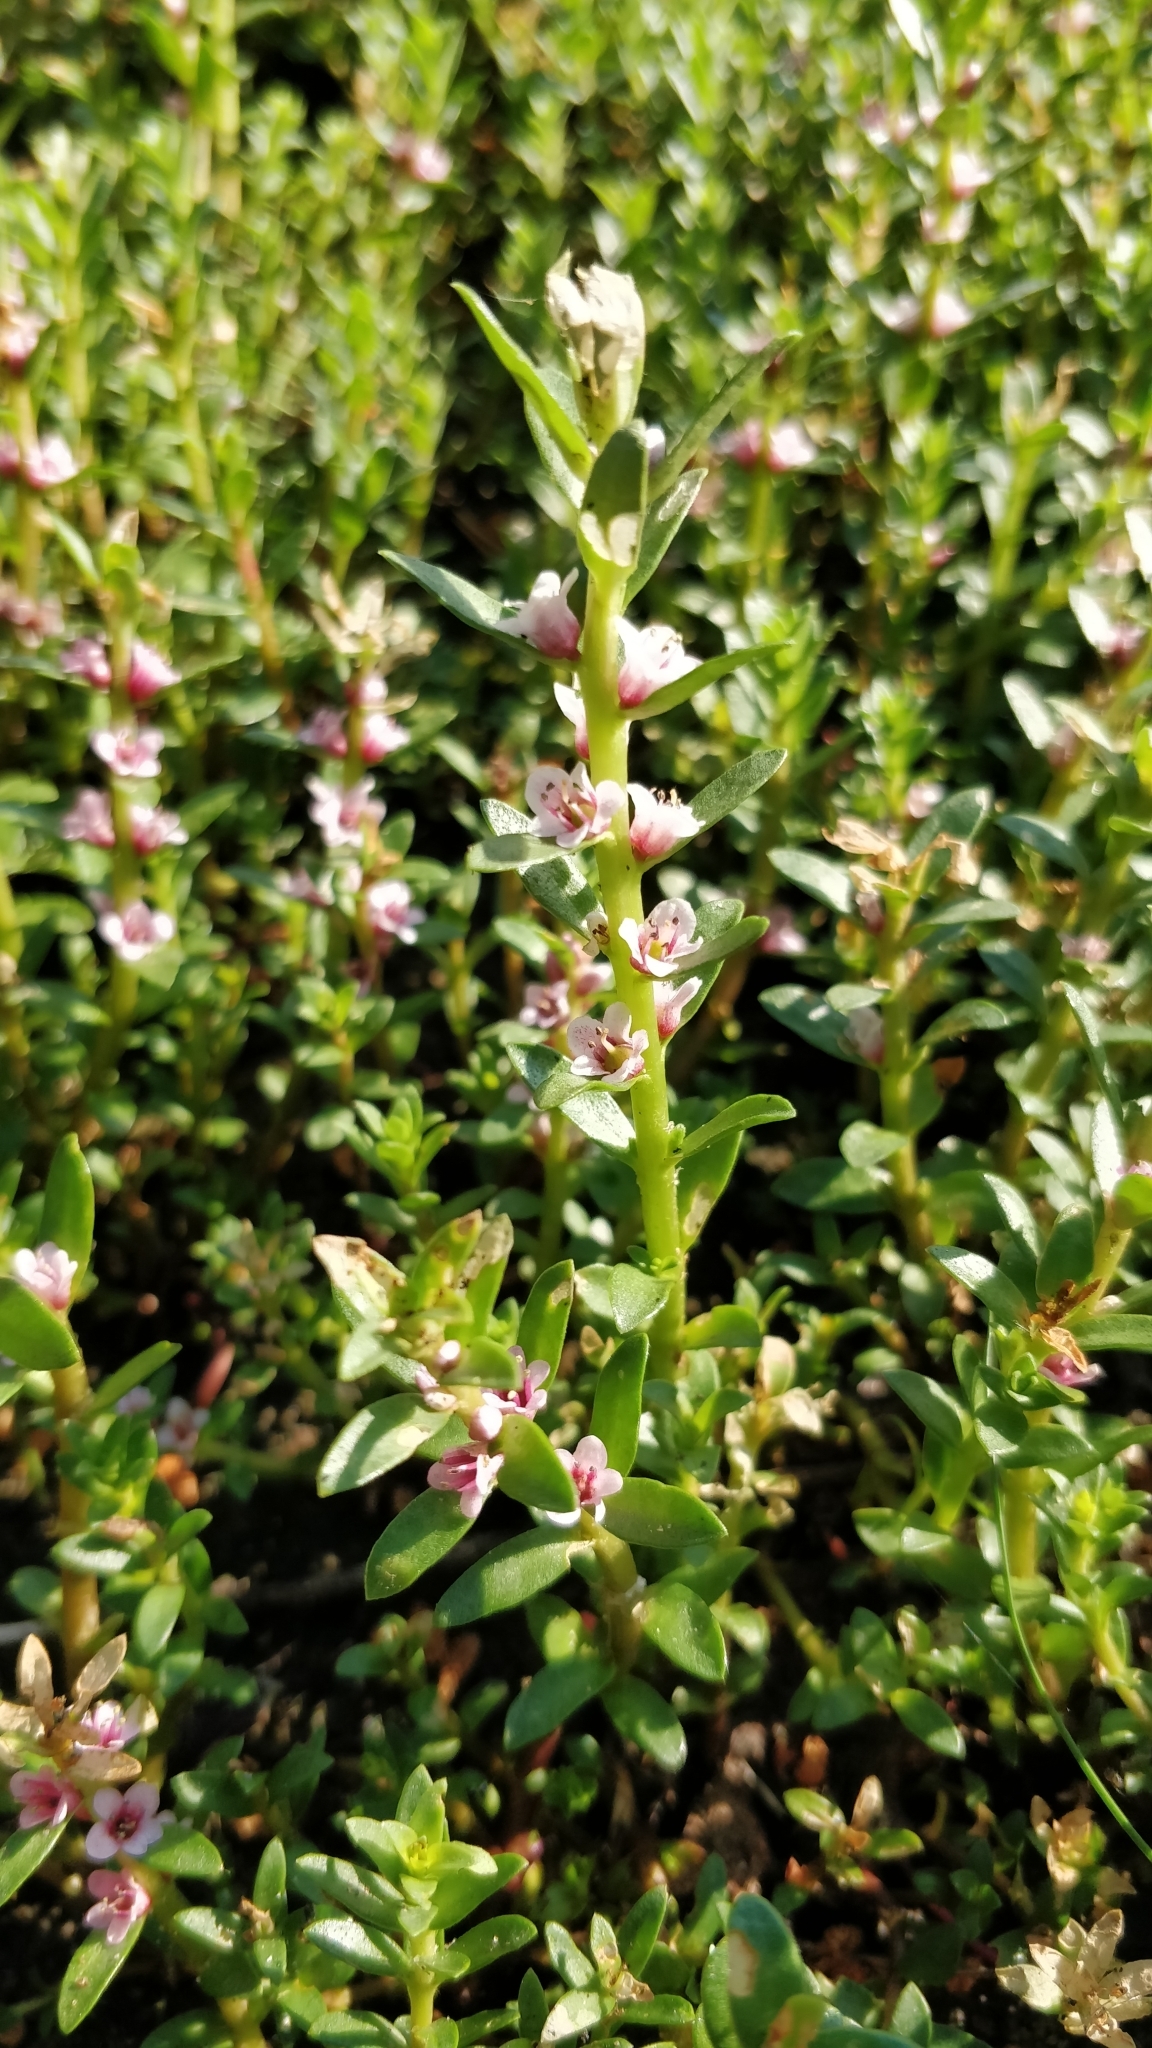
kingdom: Plantae
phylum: Tracheophyta
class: Magnoliopsida
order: Ericales
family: Primulaceae
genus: Lysimachia
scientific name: Lysimachia maritima
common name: Sea milkwort
